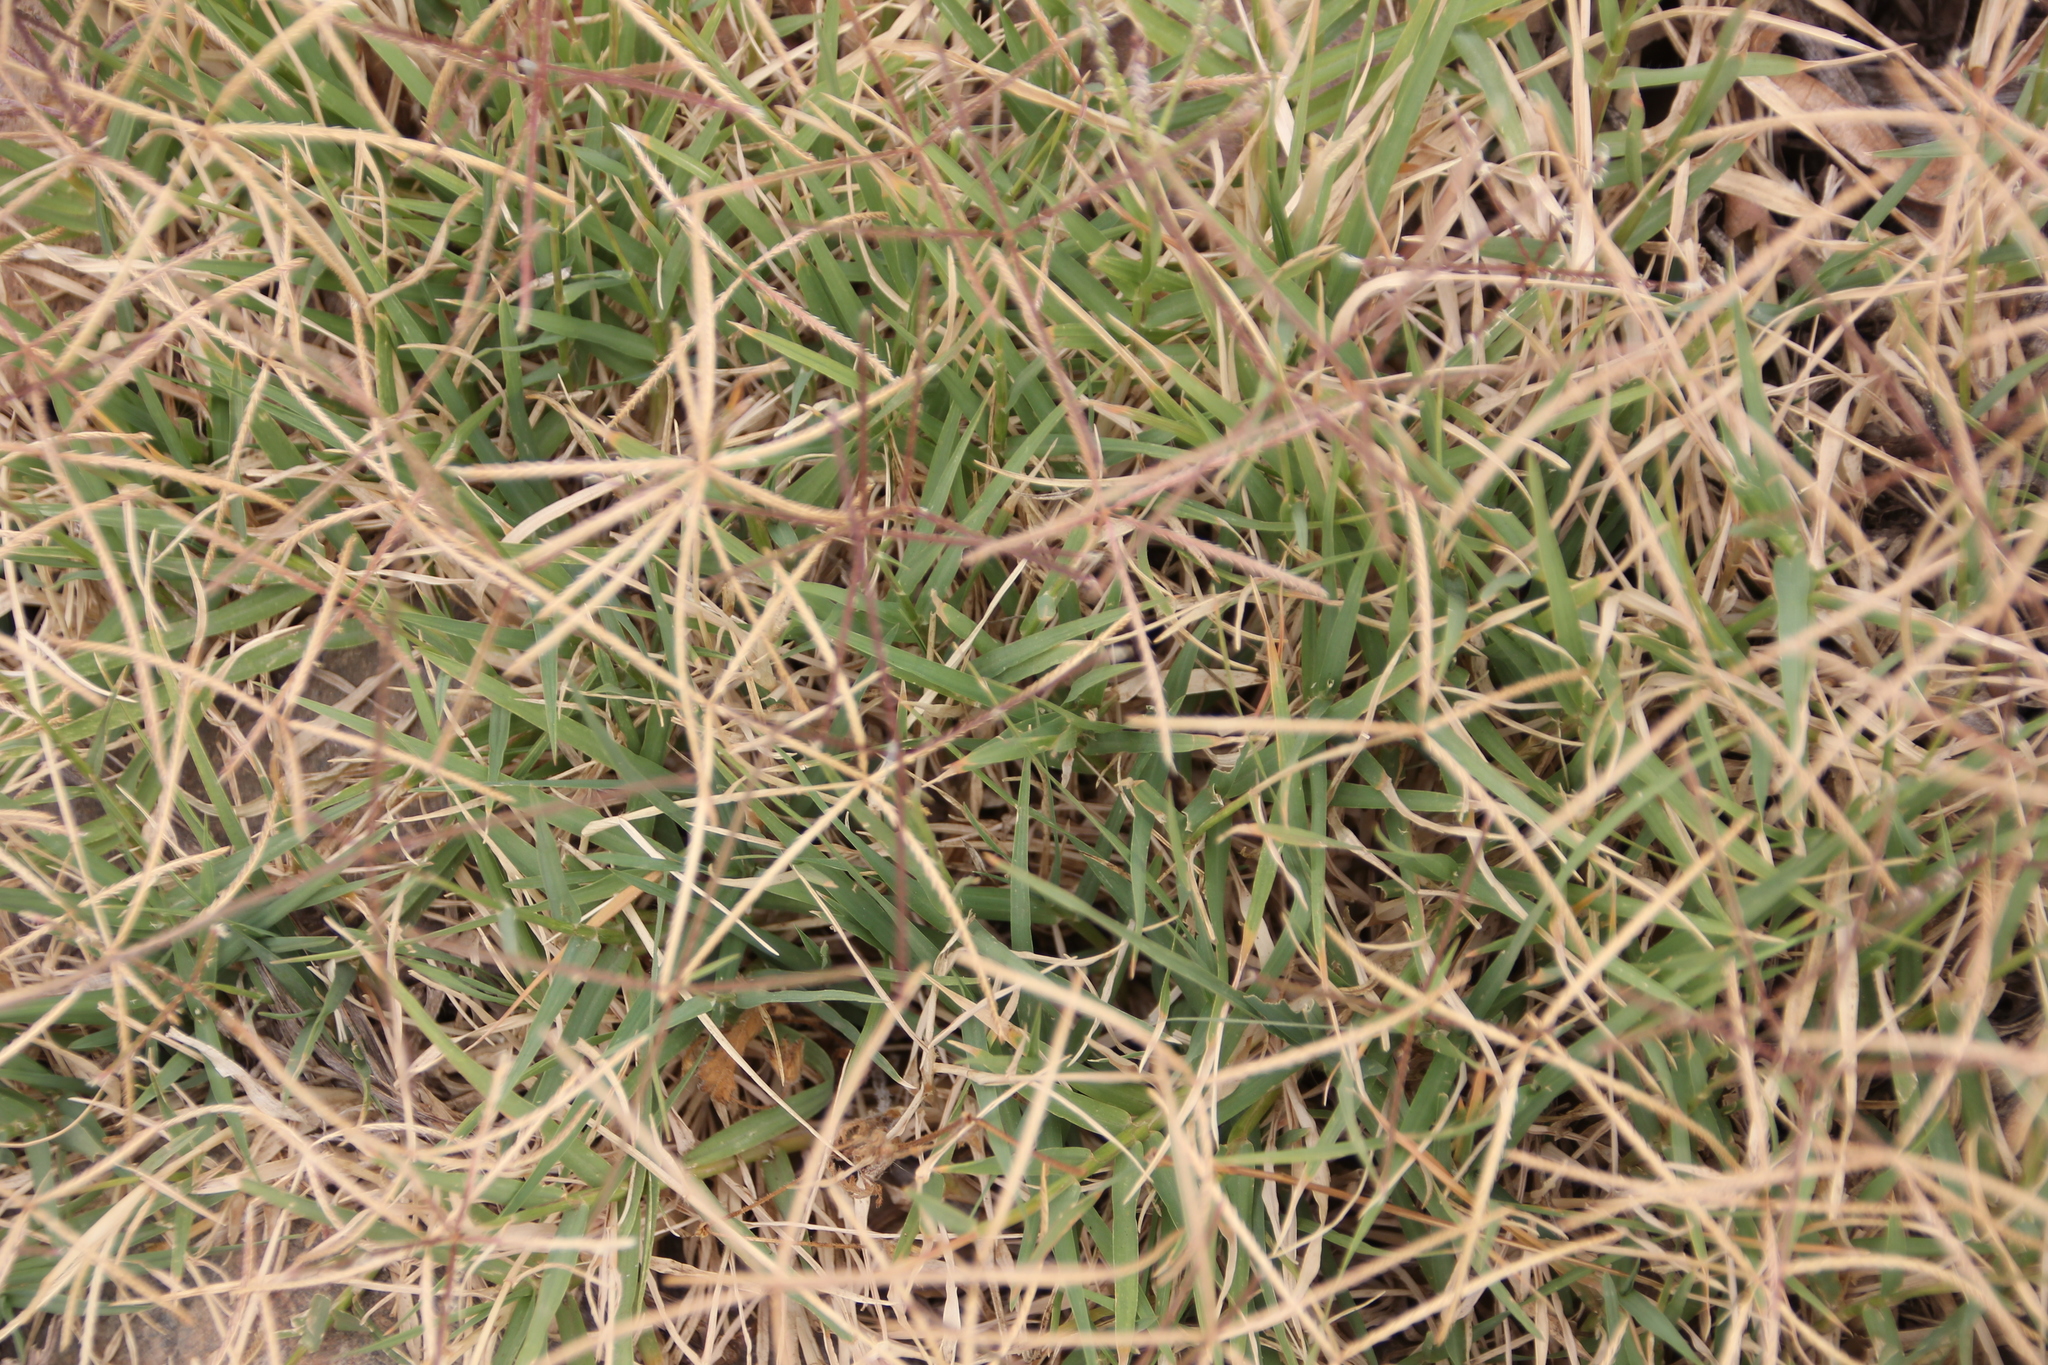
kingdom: Plantae
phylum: Tracheophyta
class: Liliopsida
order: Poales
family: Poaceae
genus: Cynodon
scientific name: Cynodon dactylon
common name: Bermuda grass
